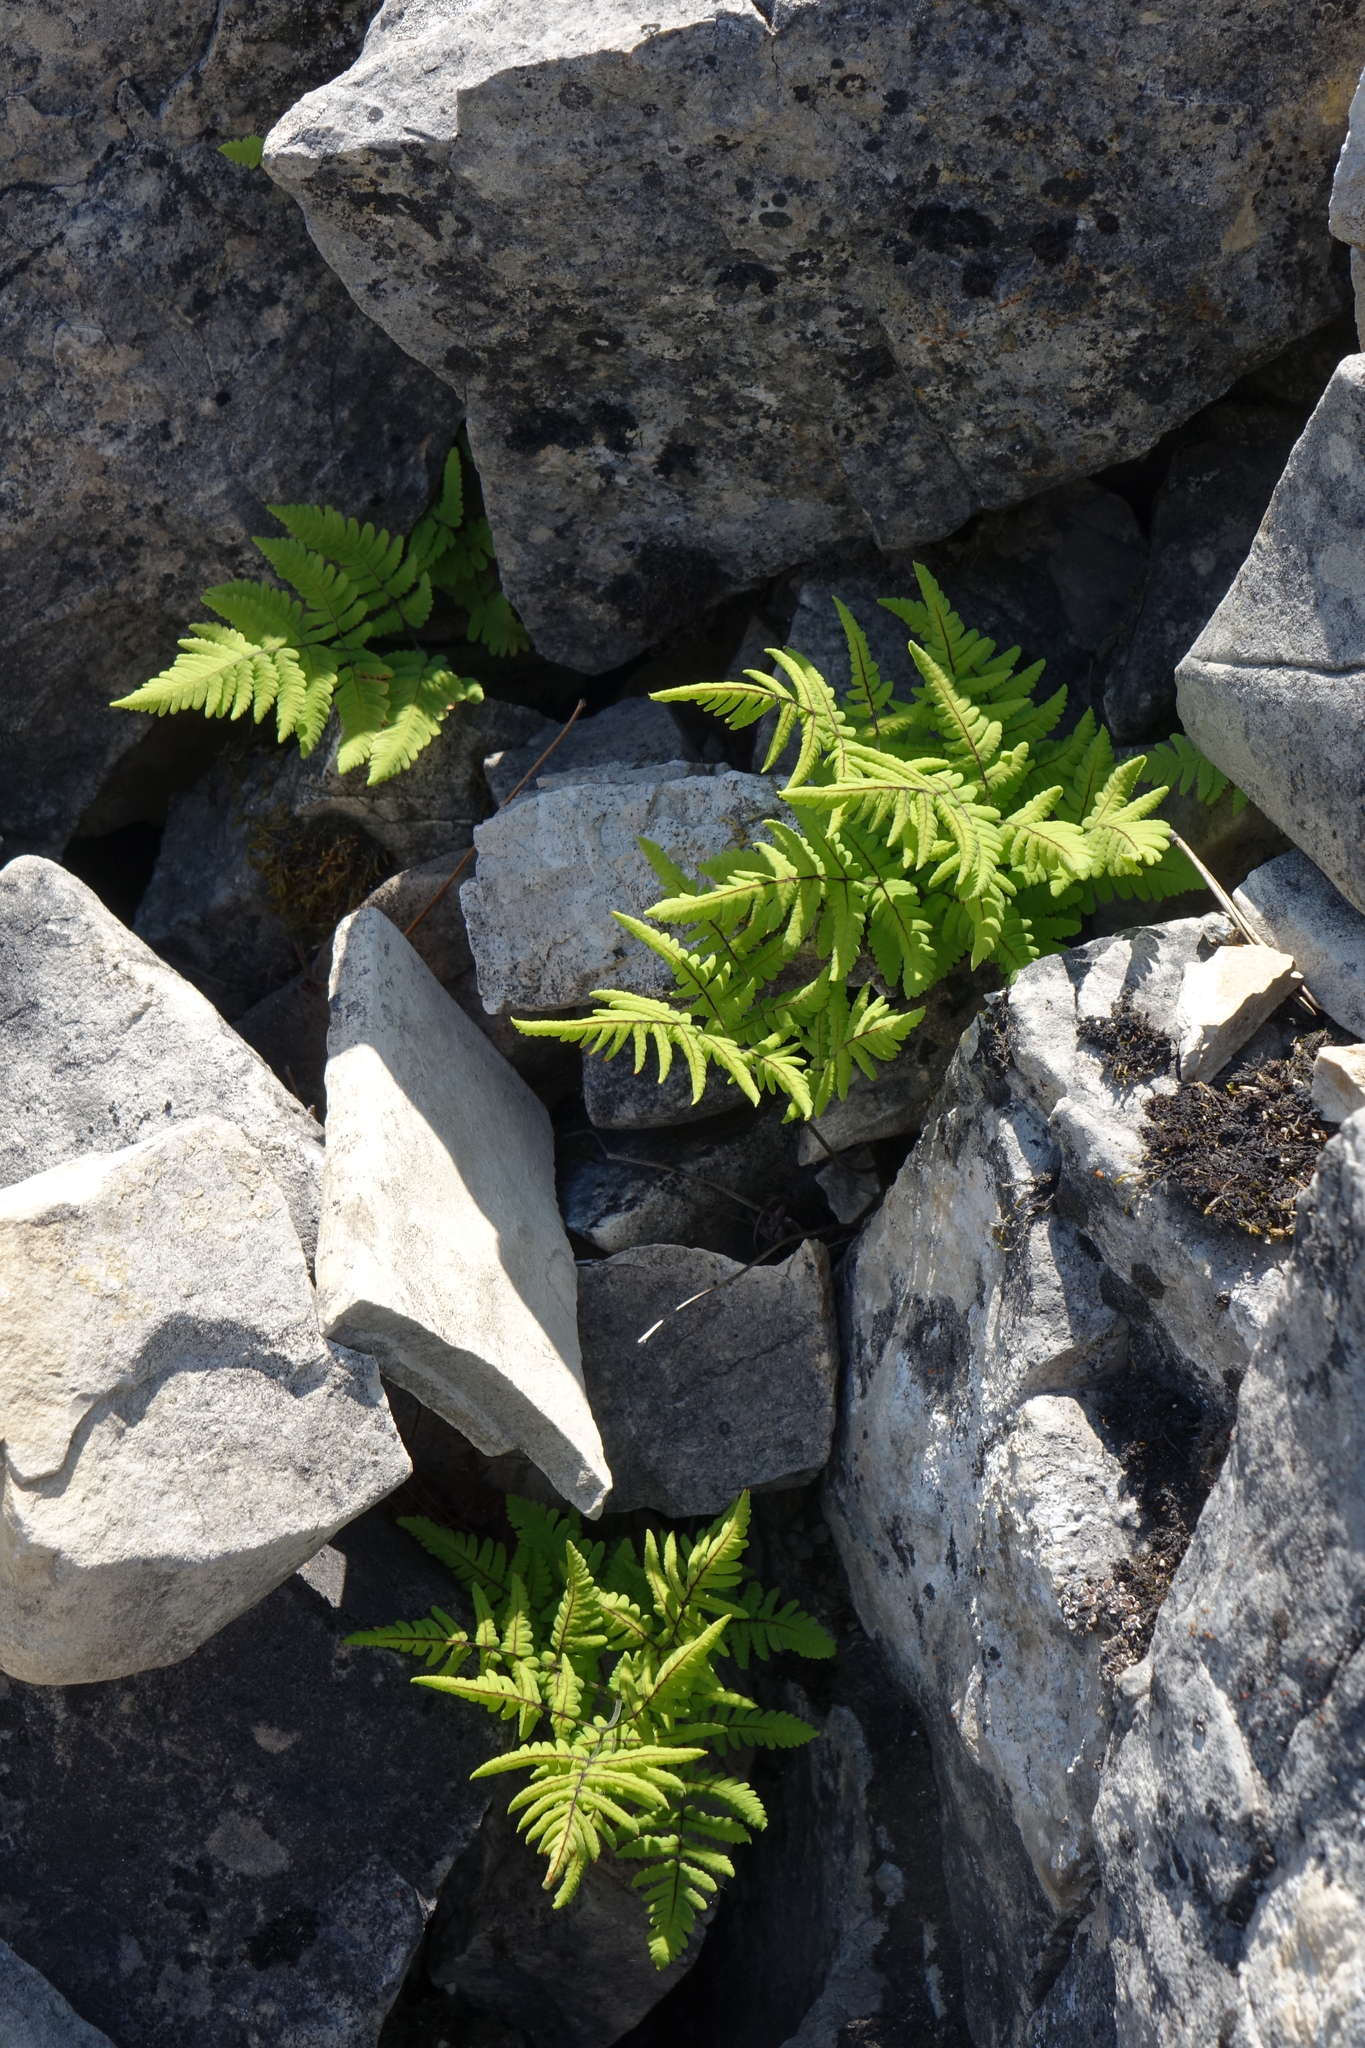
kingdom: Plantae
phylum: Tracheophyta
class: Polypodiopsida
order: Polypodiales
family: Cystopteridaceae
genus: Gymnocarpium
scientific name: Gymnocarpium jessoense
